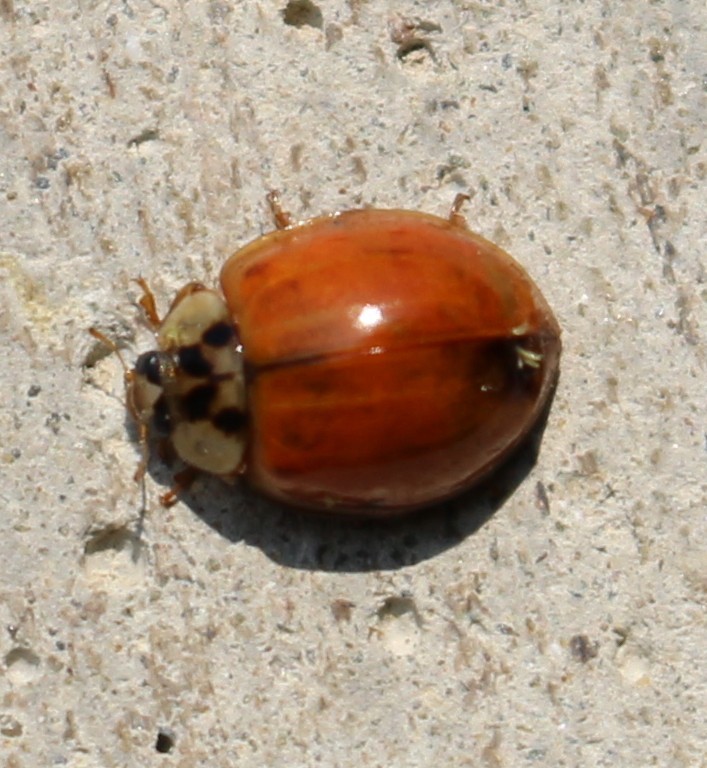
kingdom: Animalia
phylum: Arthropoda
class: Insecta
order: Coleoptera
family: Coccinellidae
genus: Harmonia
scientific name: Harmonia axyridis
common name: Harlequin ladybird
